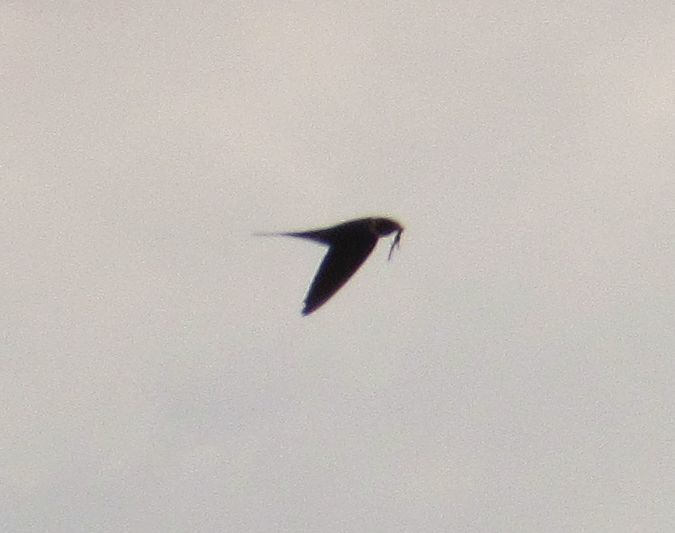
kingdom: Animalia
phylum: Chordata
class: Aves
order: Passeriformes
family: Hirundinidae
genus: Hirundo
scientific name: Hirundo rustica
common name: Barn swallow
